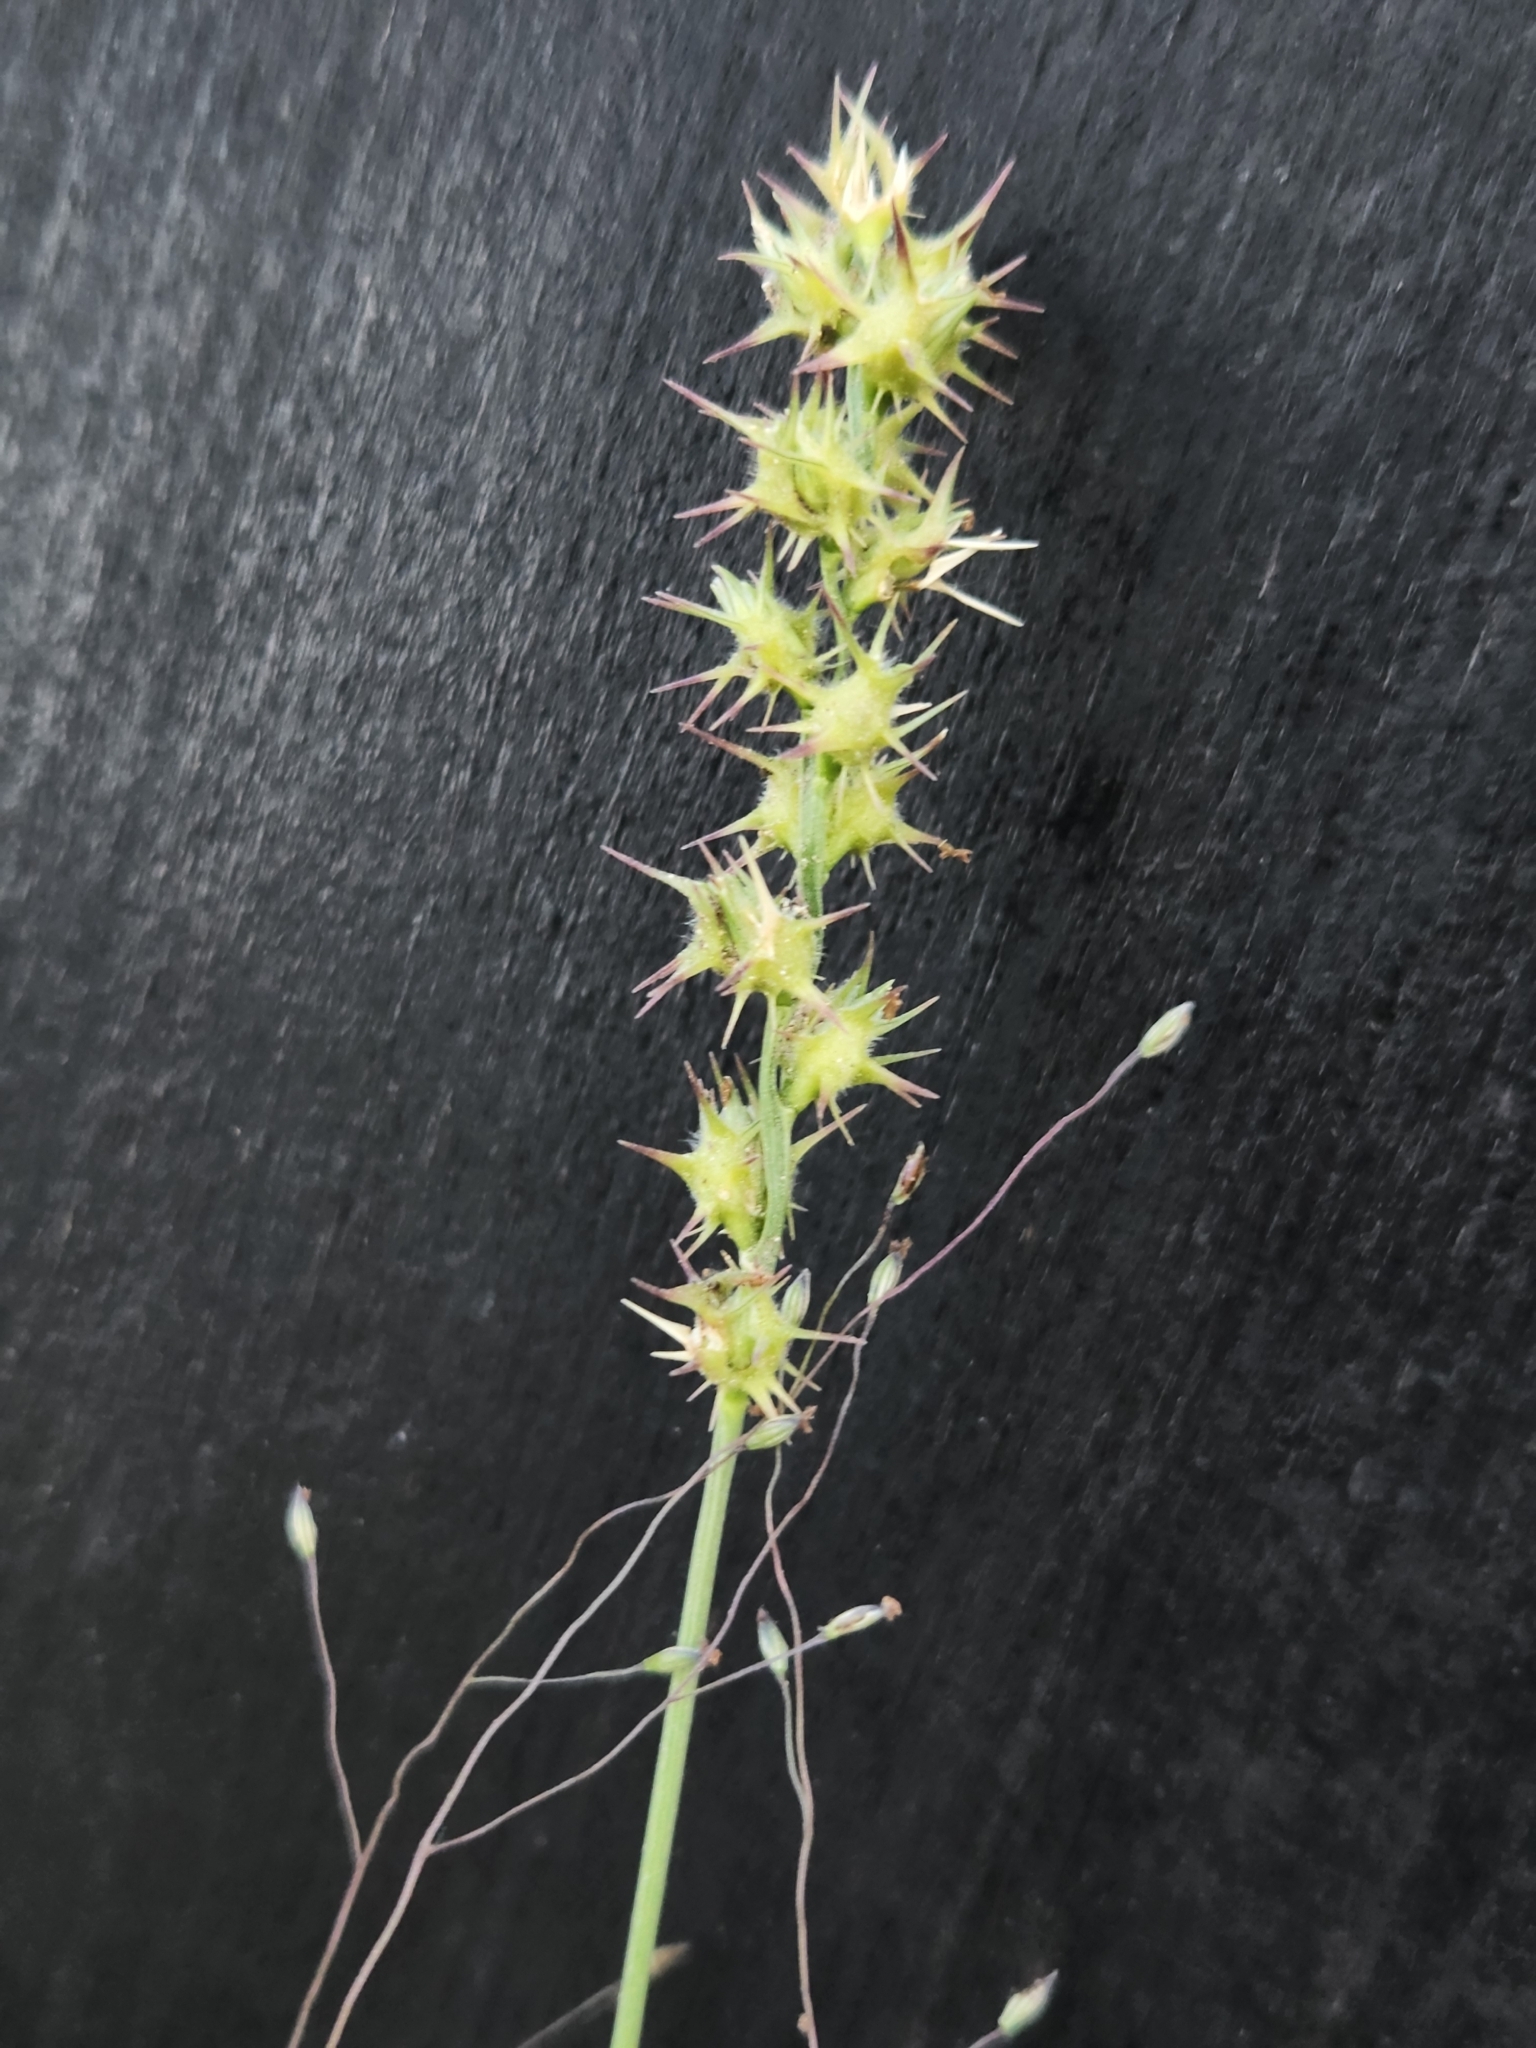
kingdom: Plantae
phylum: Tracheophyta
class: Liliopsida
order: Poales
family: Poaceae
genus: Cenchrus
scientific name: Cenchrus spinifex
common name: Coast sandbur
